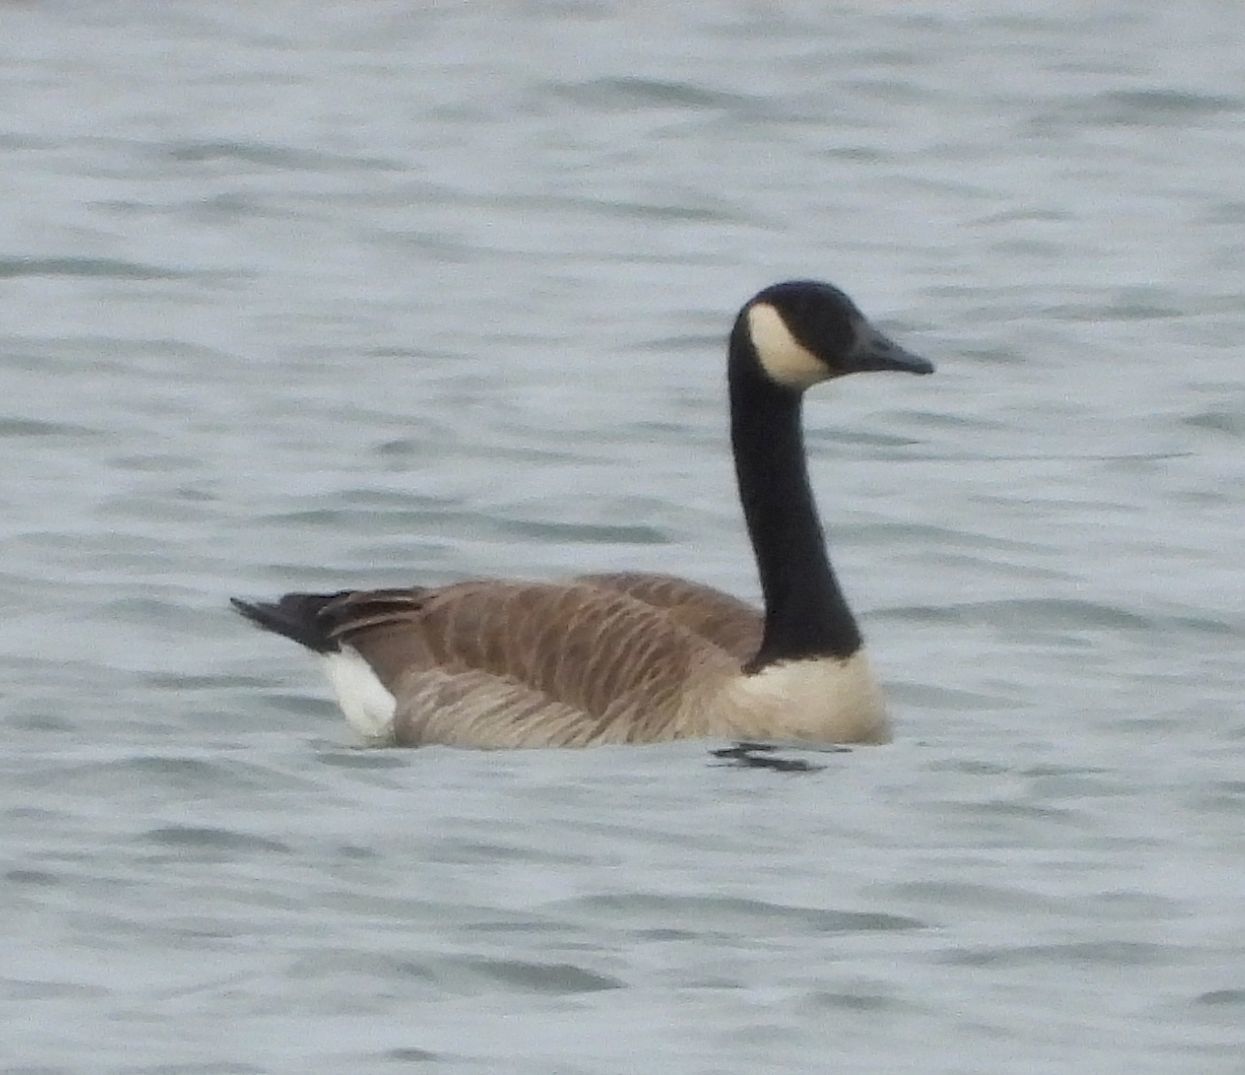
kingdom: Animalia
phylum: Chordata
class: Aves
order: Anseriformes
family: Anatidae
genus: Branta
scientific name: Branta canadensis
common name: Canada goose
